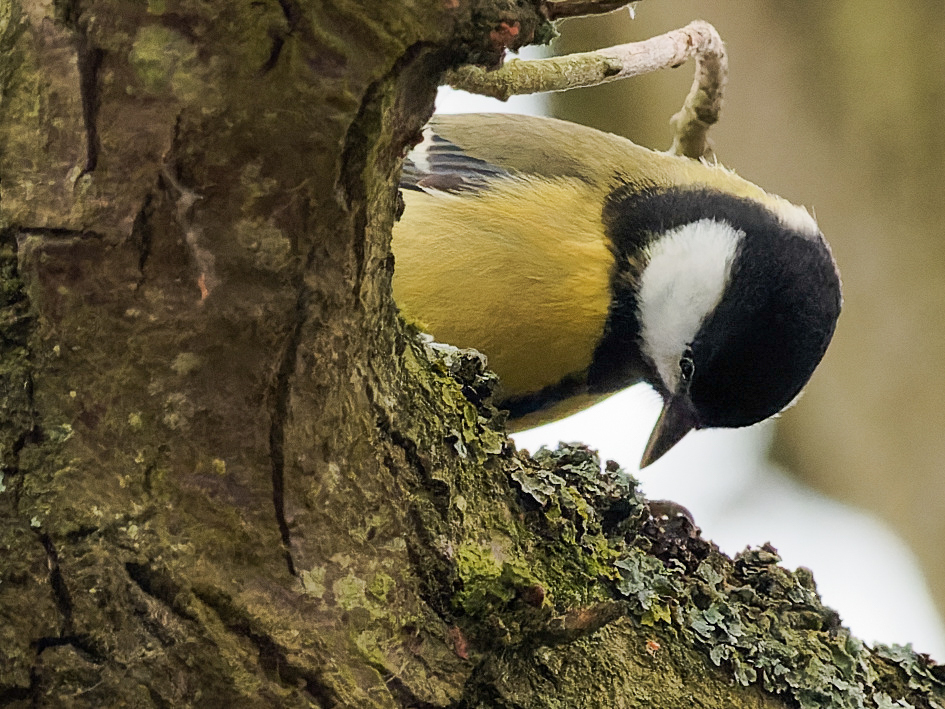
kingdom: Animalia
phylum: Chordata
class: Aves
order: Passeriformes
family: Paridae
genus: Parus
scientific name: Parus major
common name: Great tit
